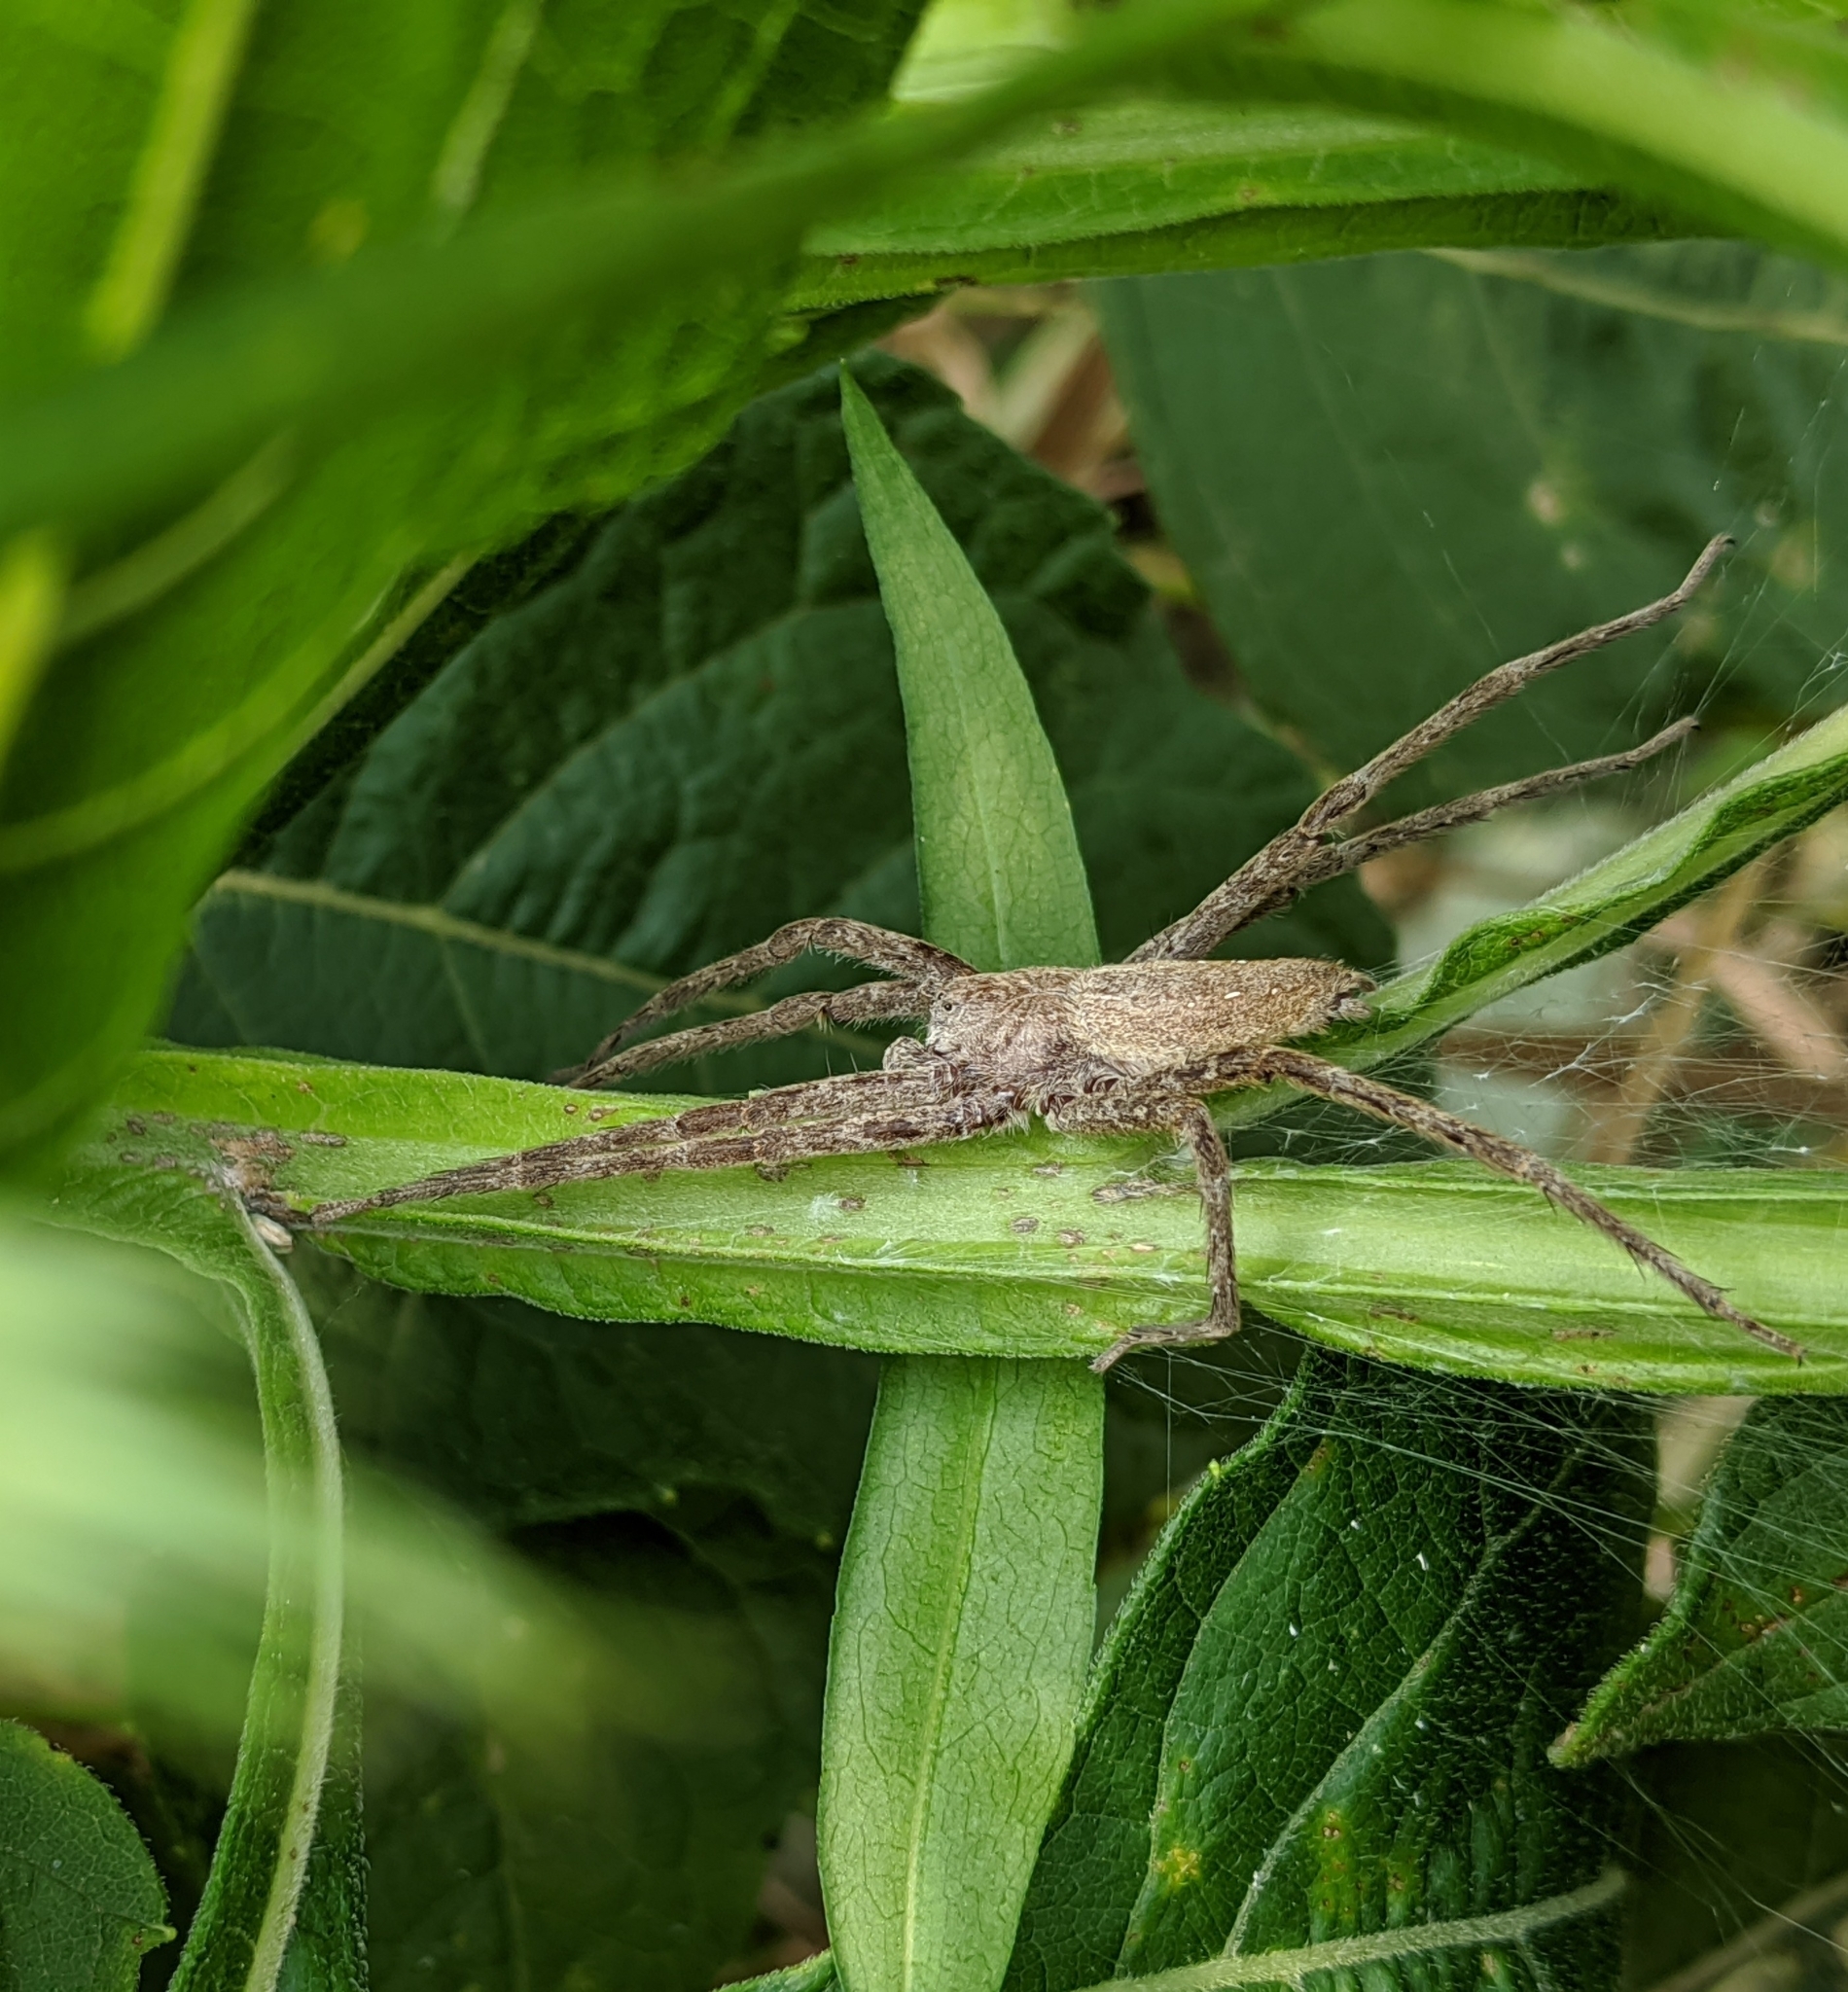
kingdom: Animalia
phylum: Arthropoda
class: Arachnida
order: Araneae
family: Pisauridae
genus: Pisaurina
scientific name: Pisaurina mira
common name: American nursery web spider
